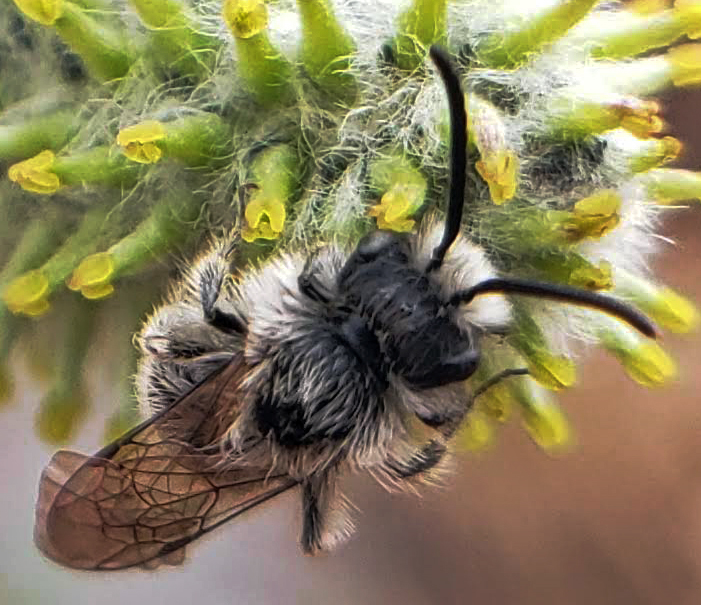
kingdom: Animalia
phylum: Arthropoda
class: Insecta
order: Hymenoptera
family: Andrenidae
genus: Andrena
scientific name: Andrena frigida
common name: Frigid mining bee
